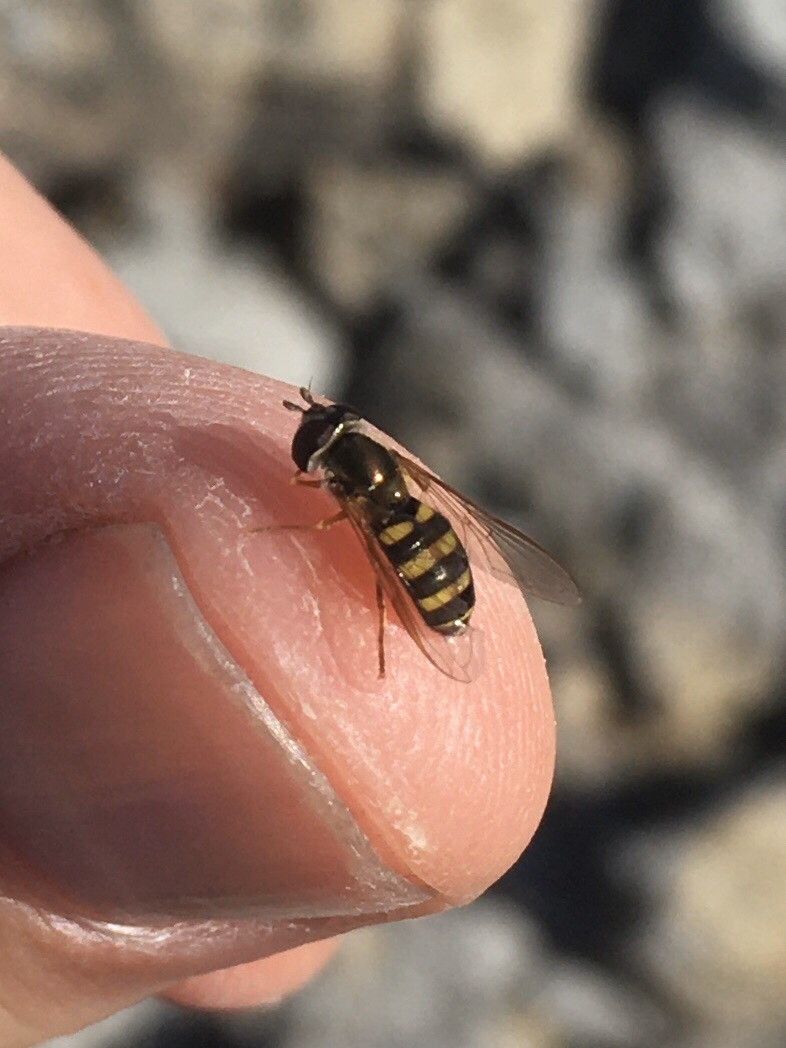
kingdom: Animalia
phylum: Arthropoda
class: Insecta
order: Diptera
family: Syrphidae
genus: Eupeodes
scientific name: Eupeodes
